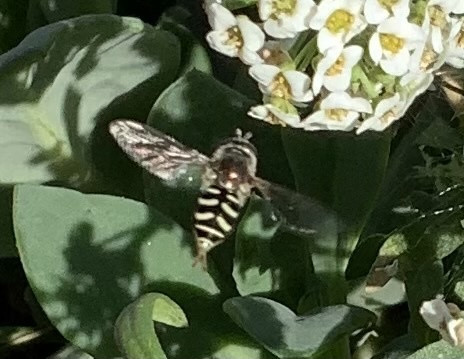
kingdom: Animalia
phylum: Arthropoda
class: Insecta
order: Diptera
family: Syrphidae
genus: Eupeodes
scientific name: Eupeodes volucris
